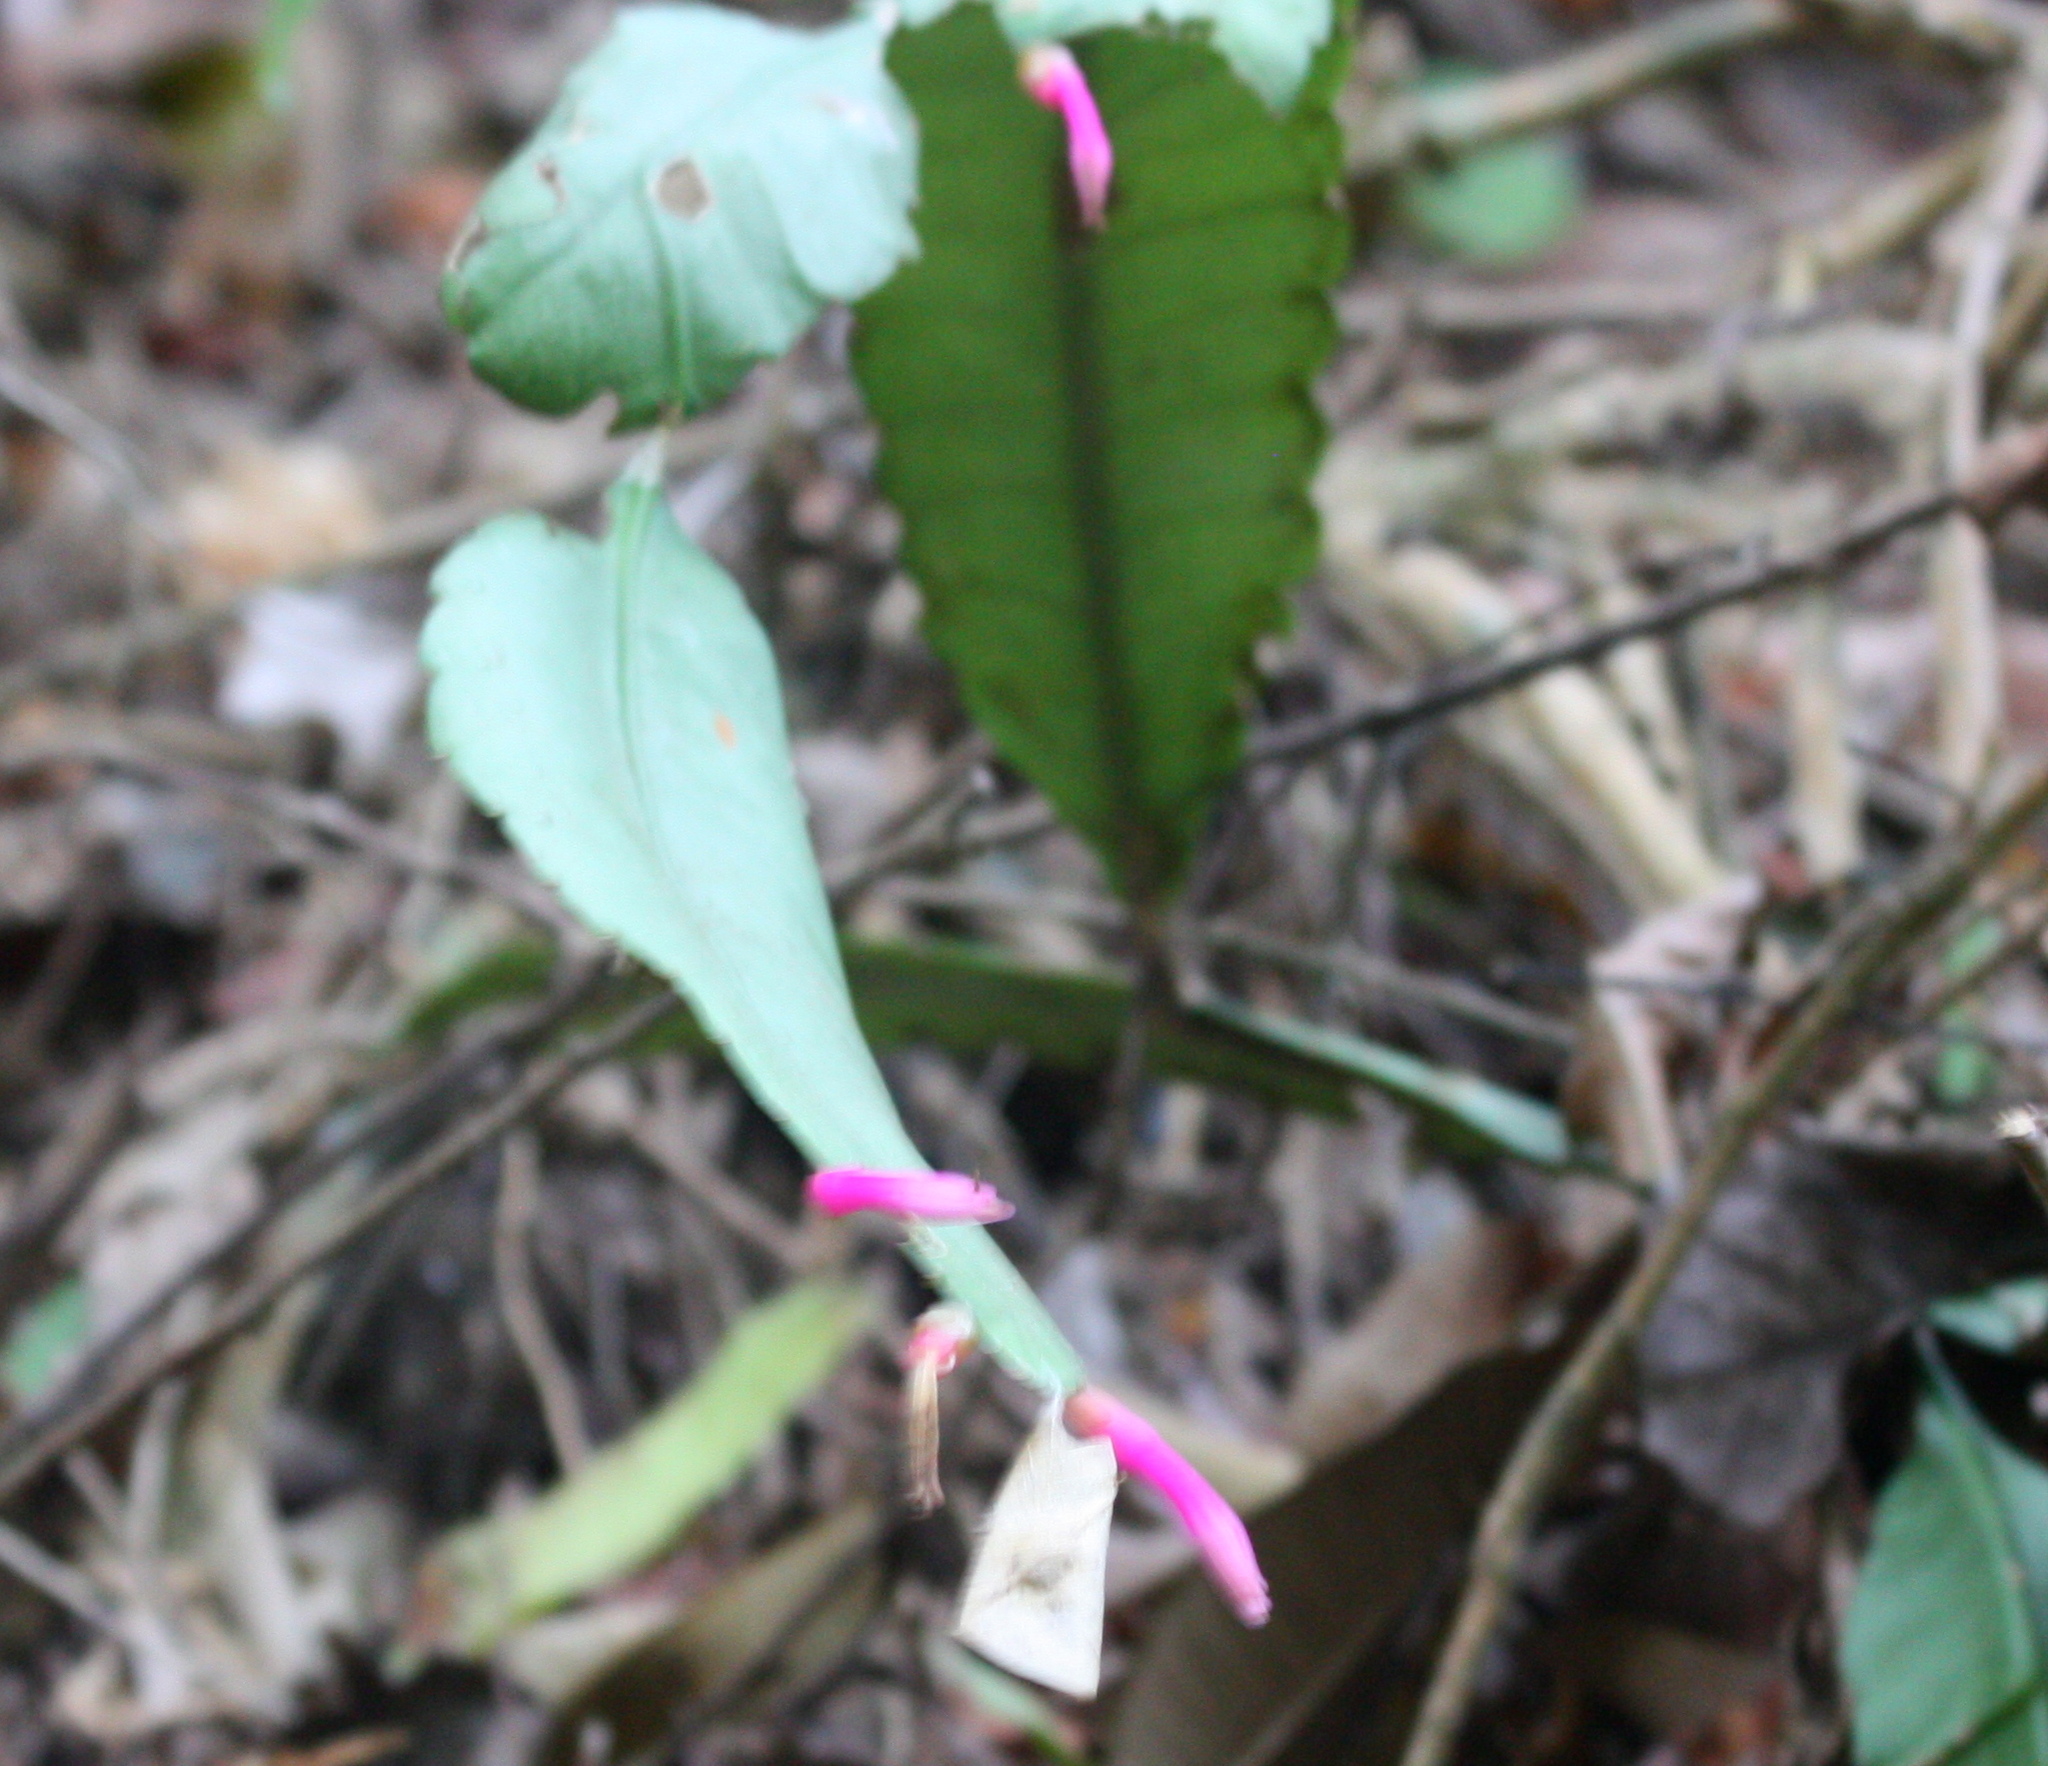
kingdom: Plantae
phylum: Tracheophyta
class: Magnoliopsida
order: Caryophyllales
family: Cactaceae
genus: Pseudorhipsalis
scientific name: Pseudorhipsalis amazonica
